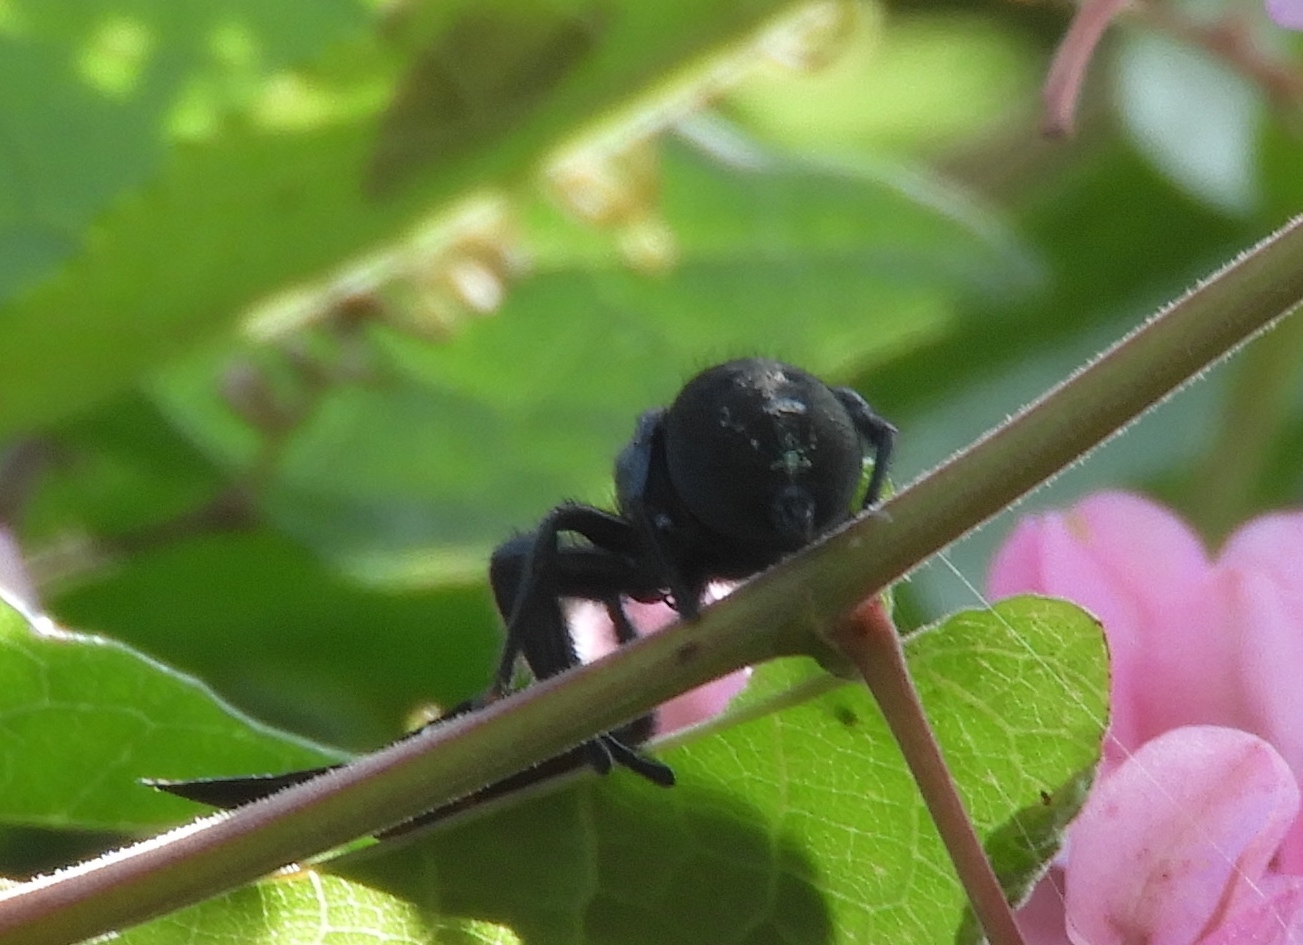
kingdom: Animalia
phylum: Arthropoda
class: Arachnida
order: Araneae
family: Salticidae
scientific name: Salticidae
